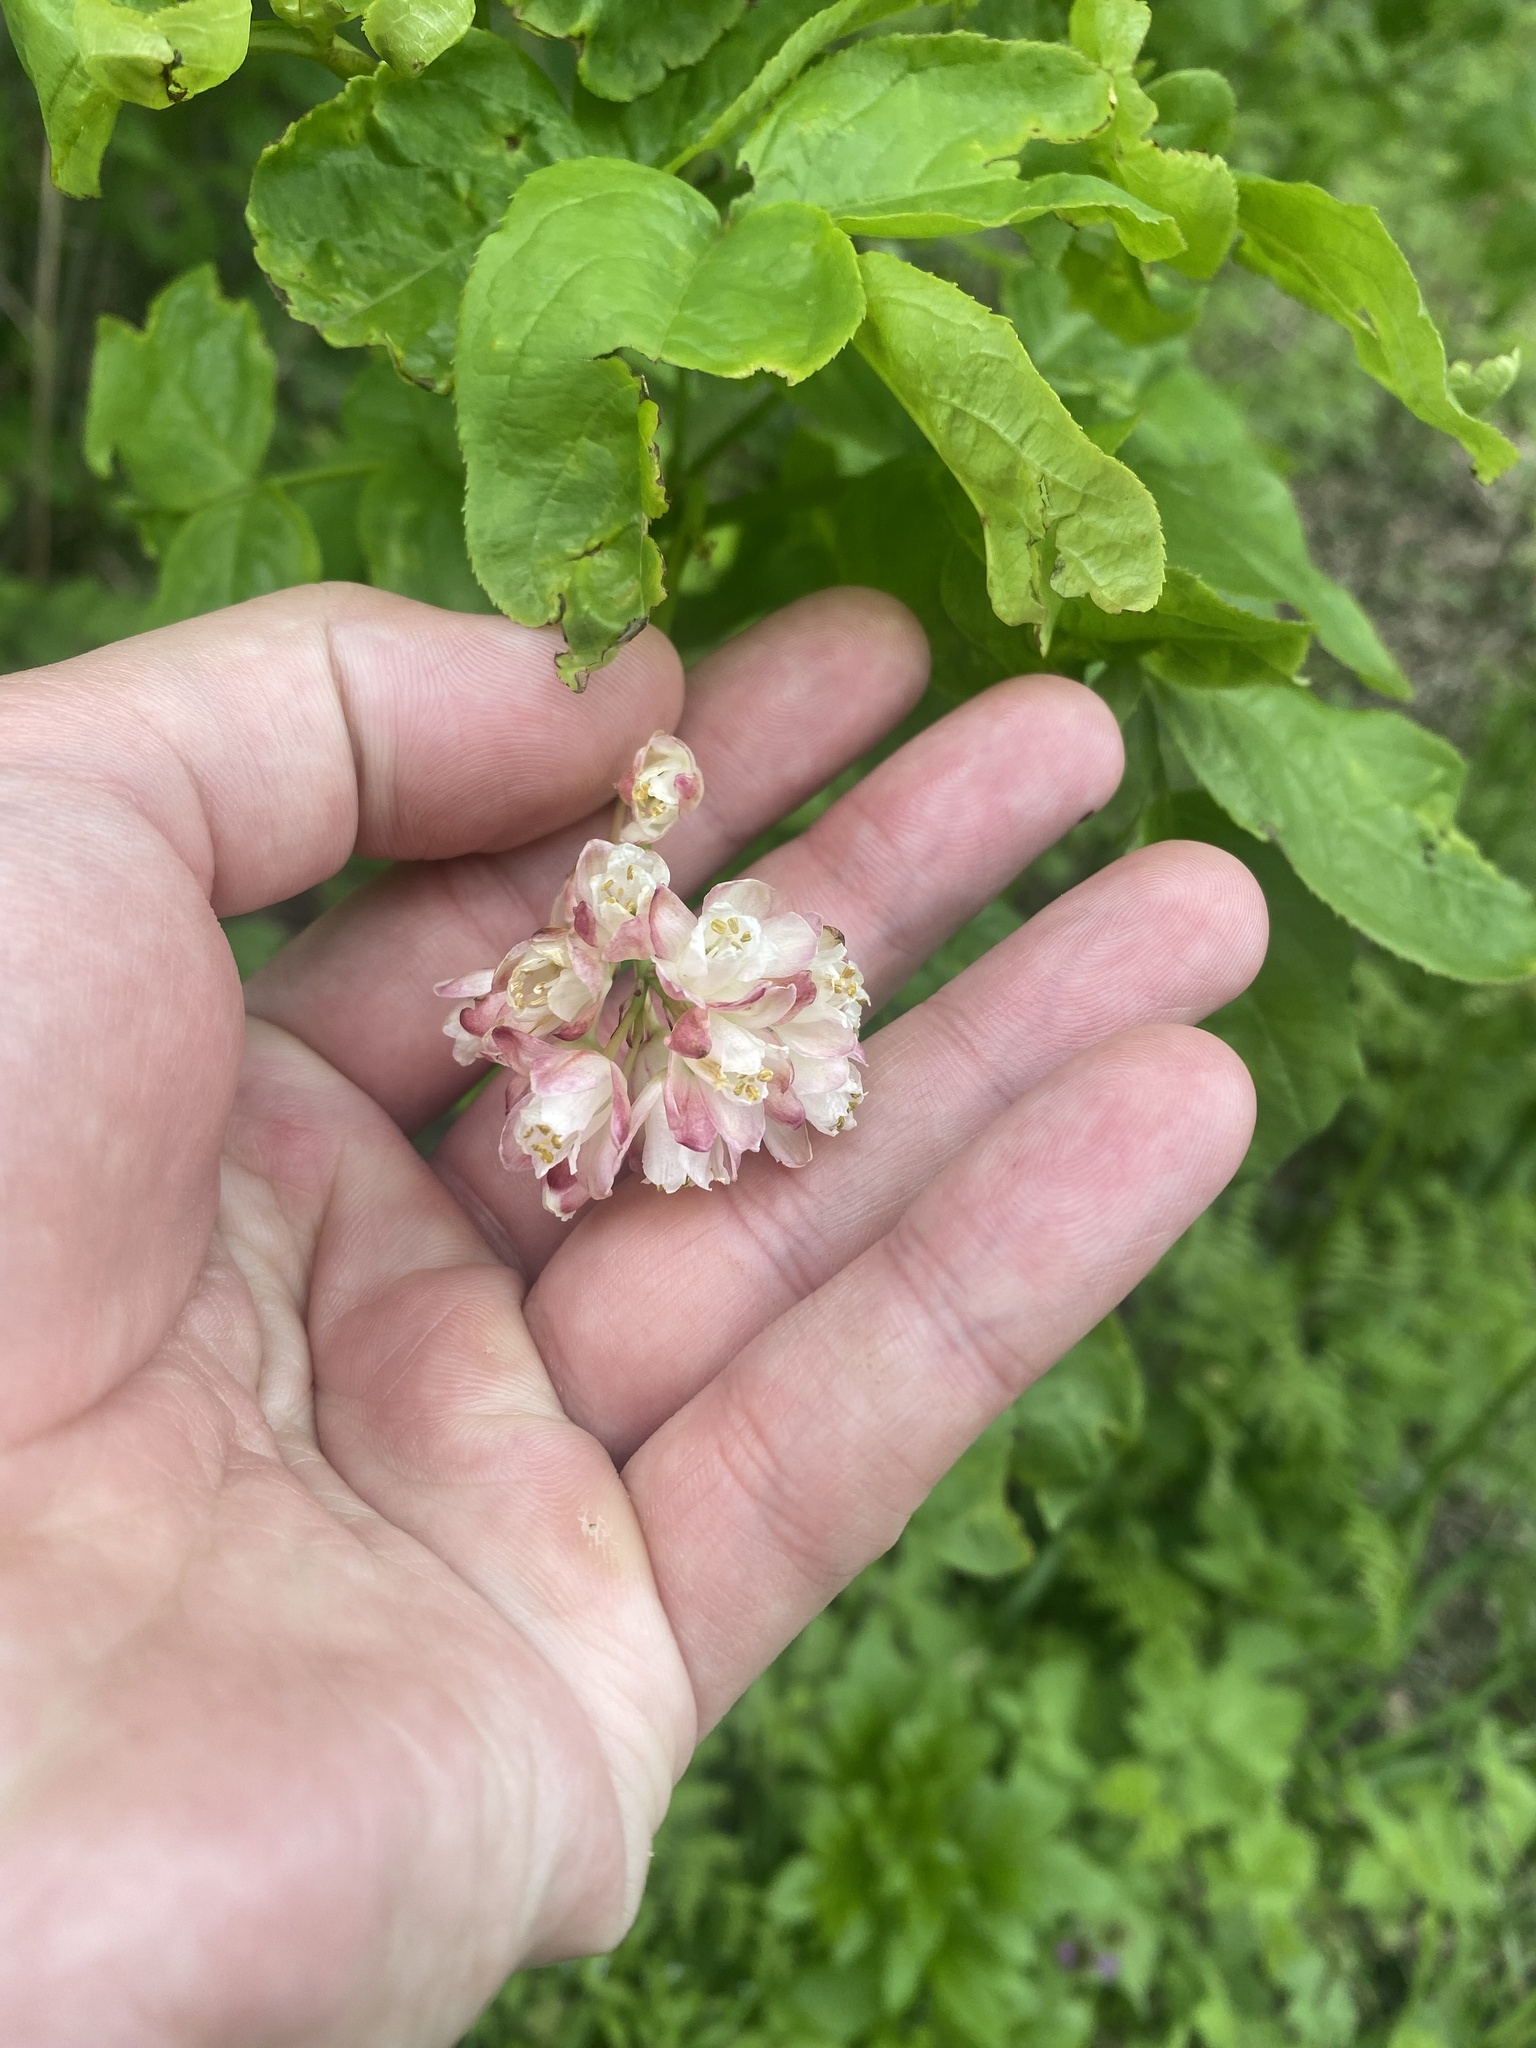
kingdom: Plantae
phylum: Tracheophyta
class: Magnoliopsida
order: Crossosomatales
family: Staphyleaceae
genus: Staphylea
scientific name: Staphylea pinnata
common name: Bladdernut
